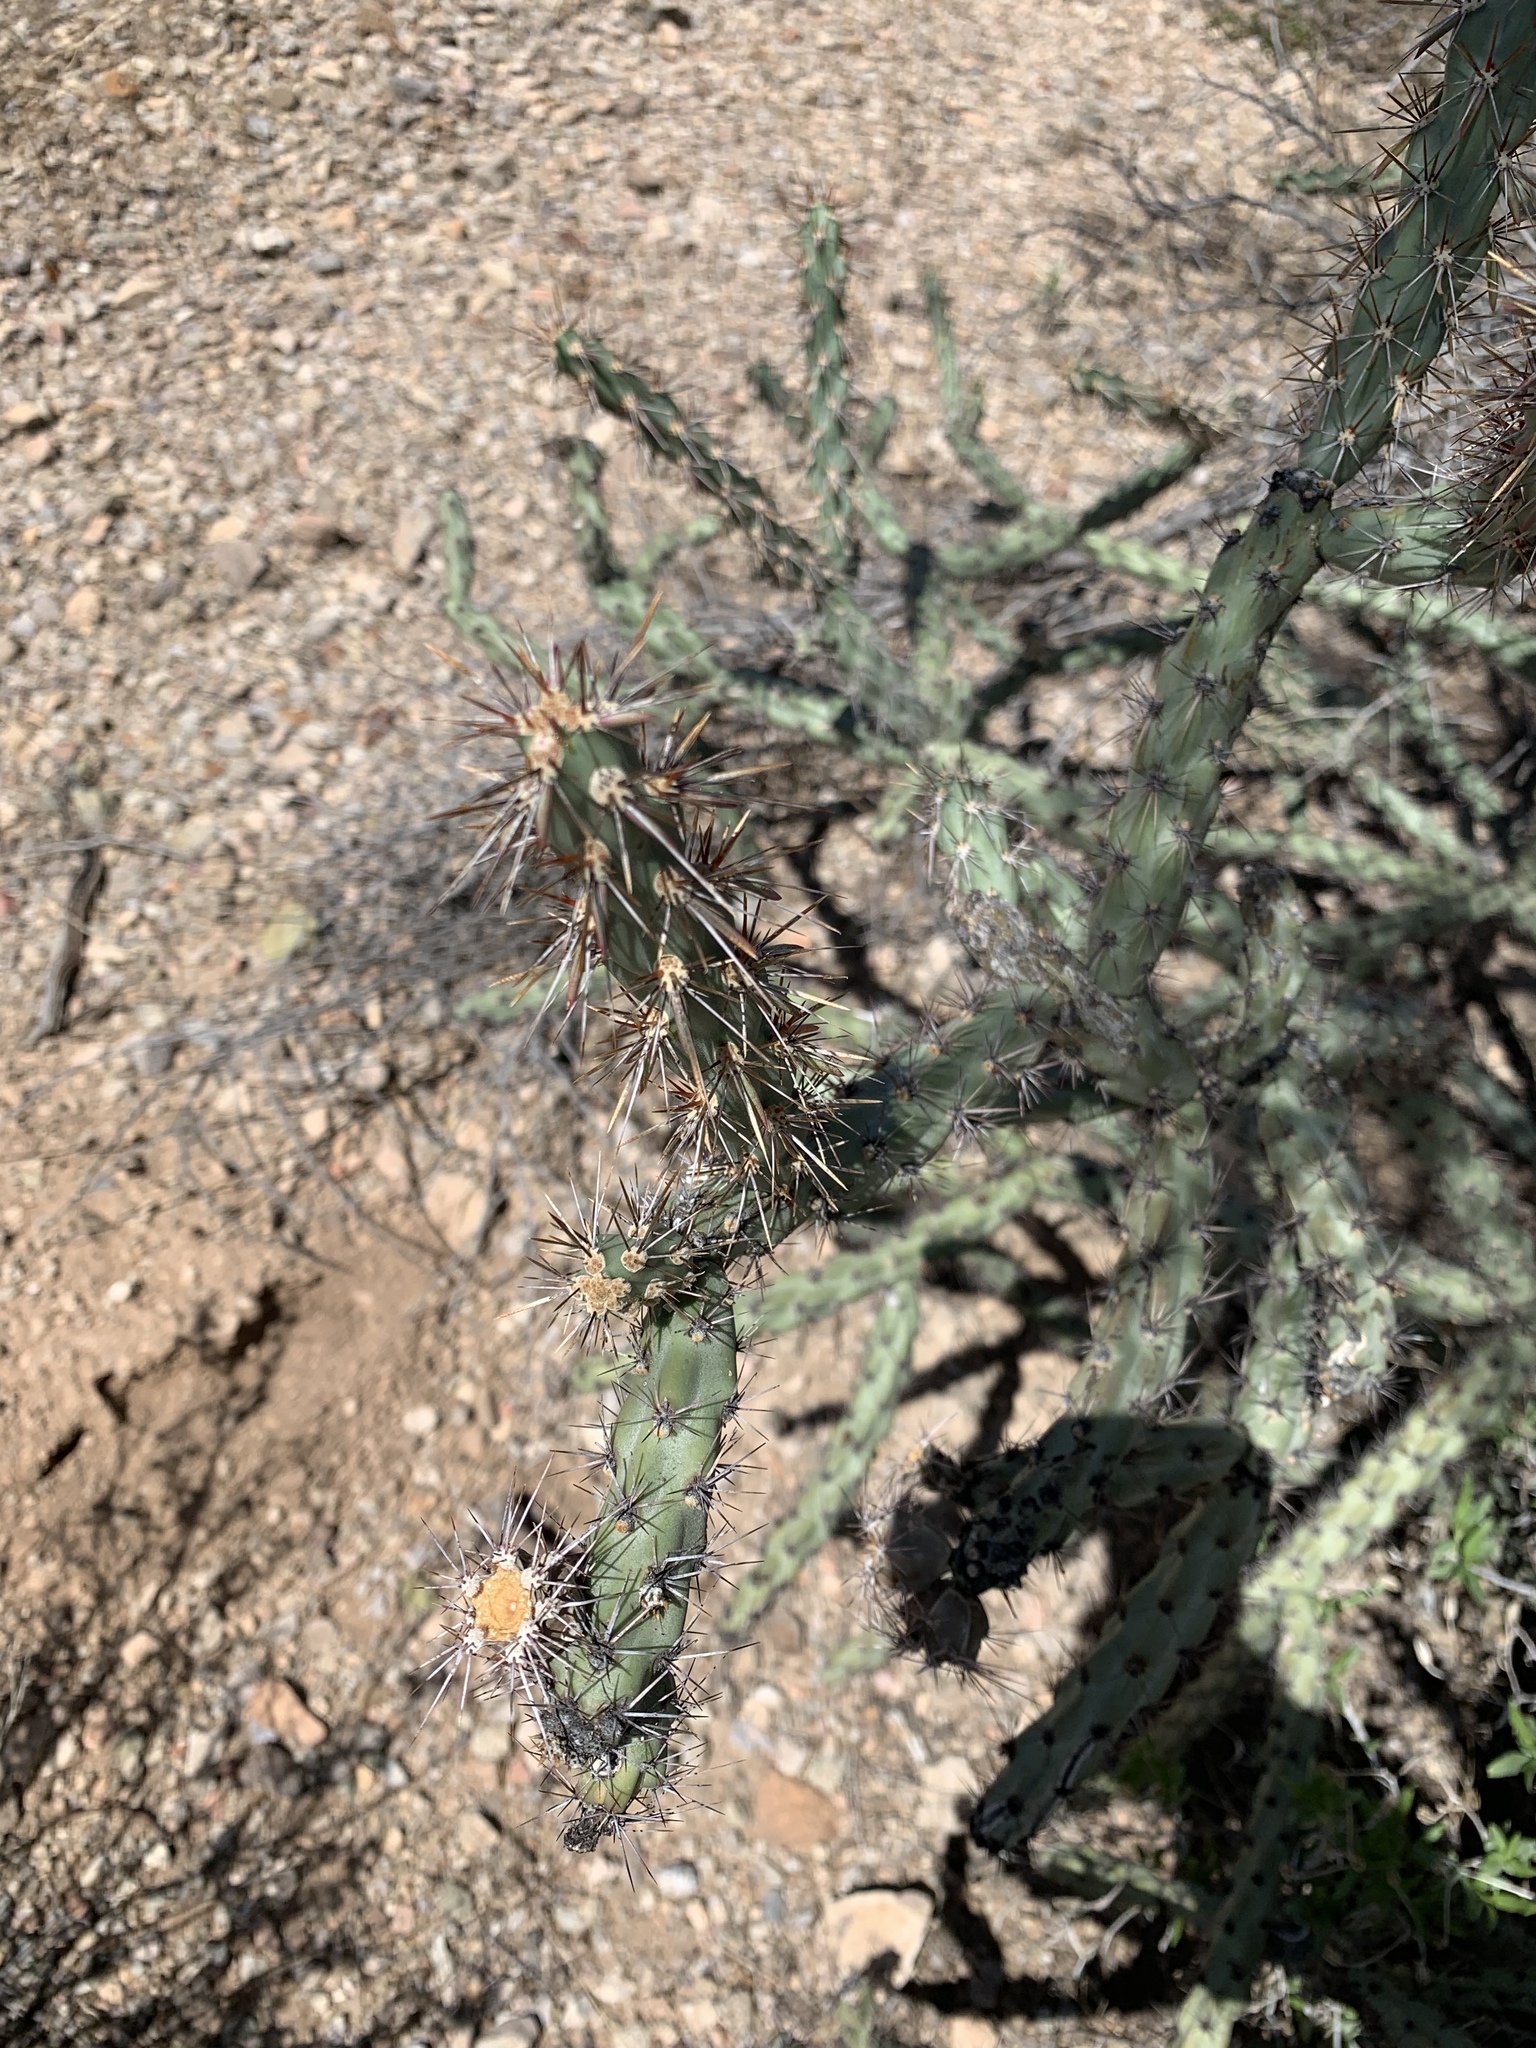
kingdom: Plantae
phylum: Tracheophyta
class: Magnoliopsida
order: Caryophyllales
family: Cactaceae
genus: Cylindropuntia
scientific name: Cylindropuntia acanthocarpa
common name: Buckhorn cholla
